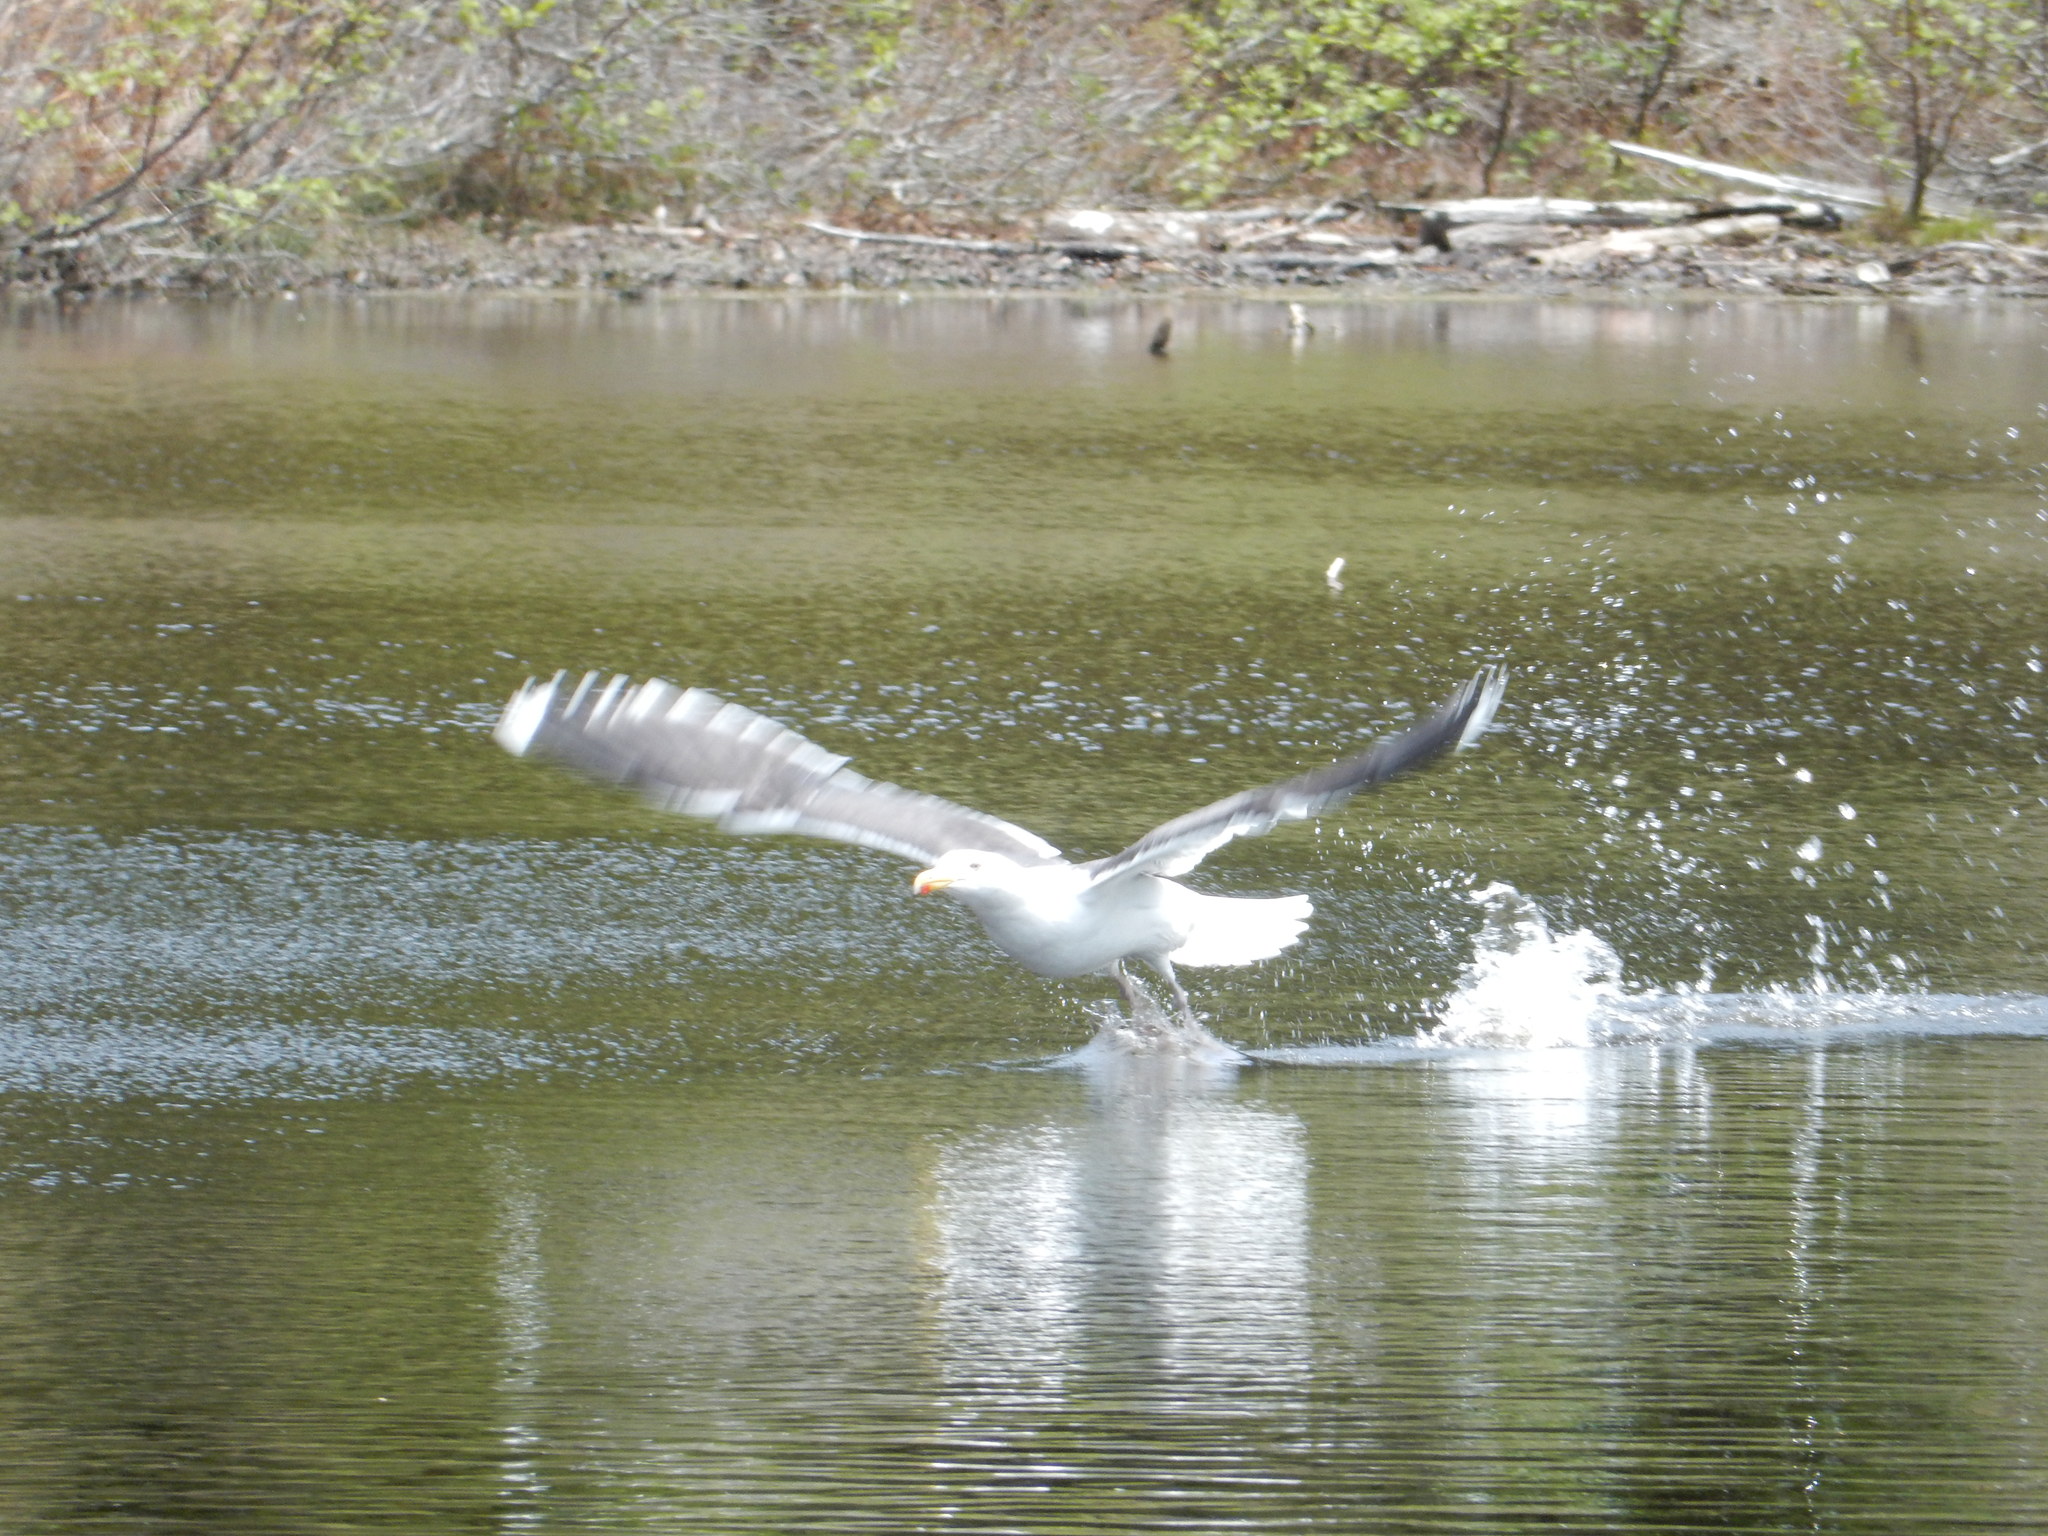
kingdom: Animalia
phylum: Chordata
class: Aves
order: Charadriiformes
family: Laridae
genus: Larus
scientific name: Larus marinus
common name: Great black-backed gull
